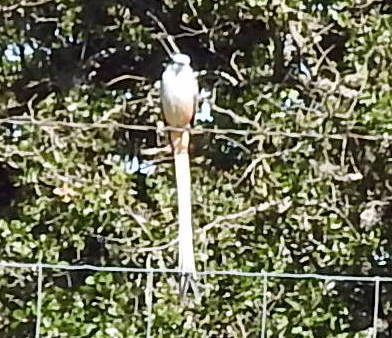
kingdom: Animalia
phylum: Chordata
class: Aves
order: Passeriformes
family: Tyrannidae
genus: Tyrannus
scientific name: Tyrannus forficatus
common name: Scissor-tailed flycatcher
